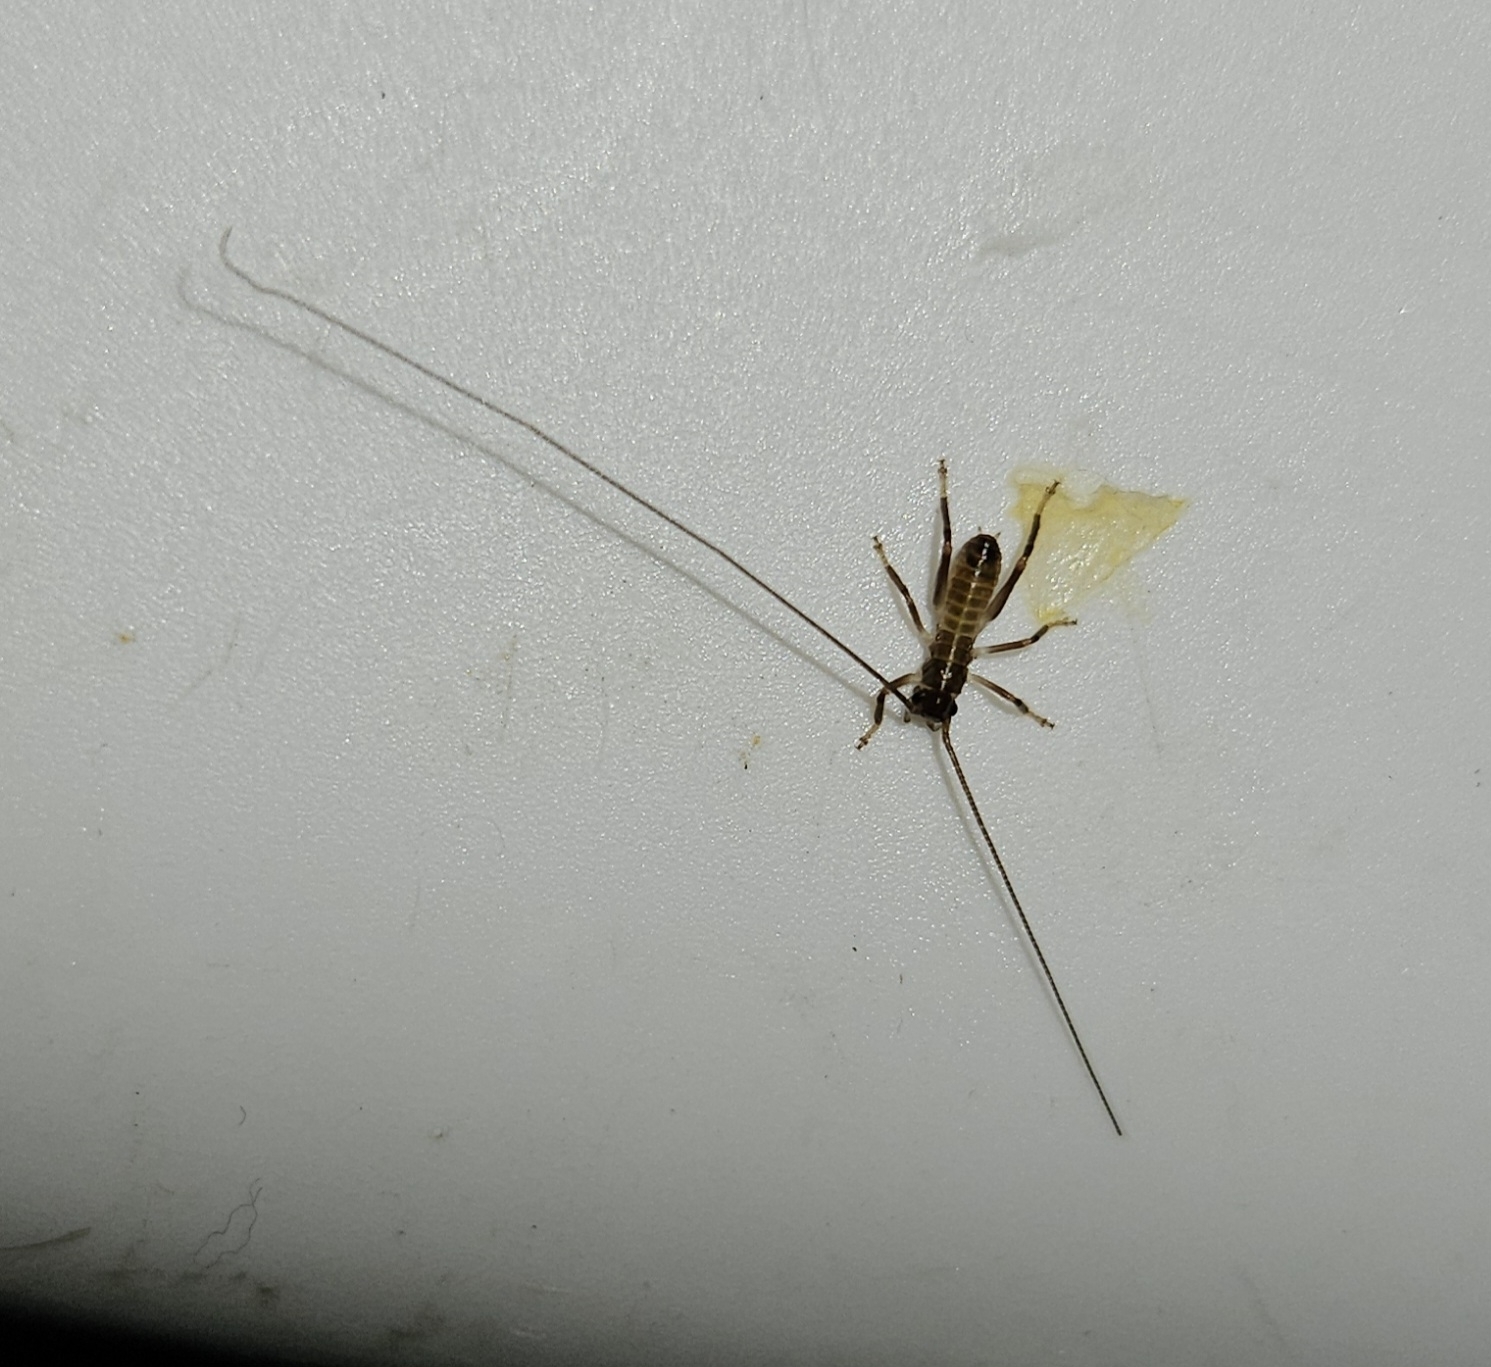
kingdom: Animalia
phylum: Arthropoda
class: Insecta
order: Orthoptera
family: Anostostomatidae
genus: Hemideina
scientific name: Hemideina thoracica
